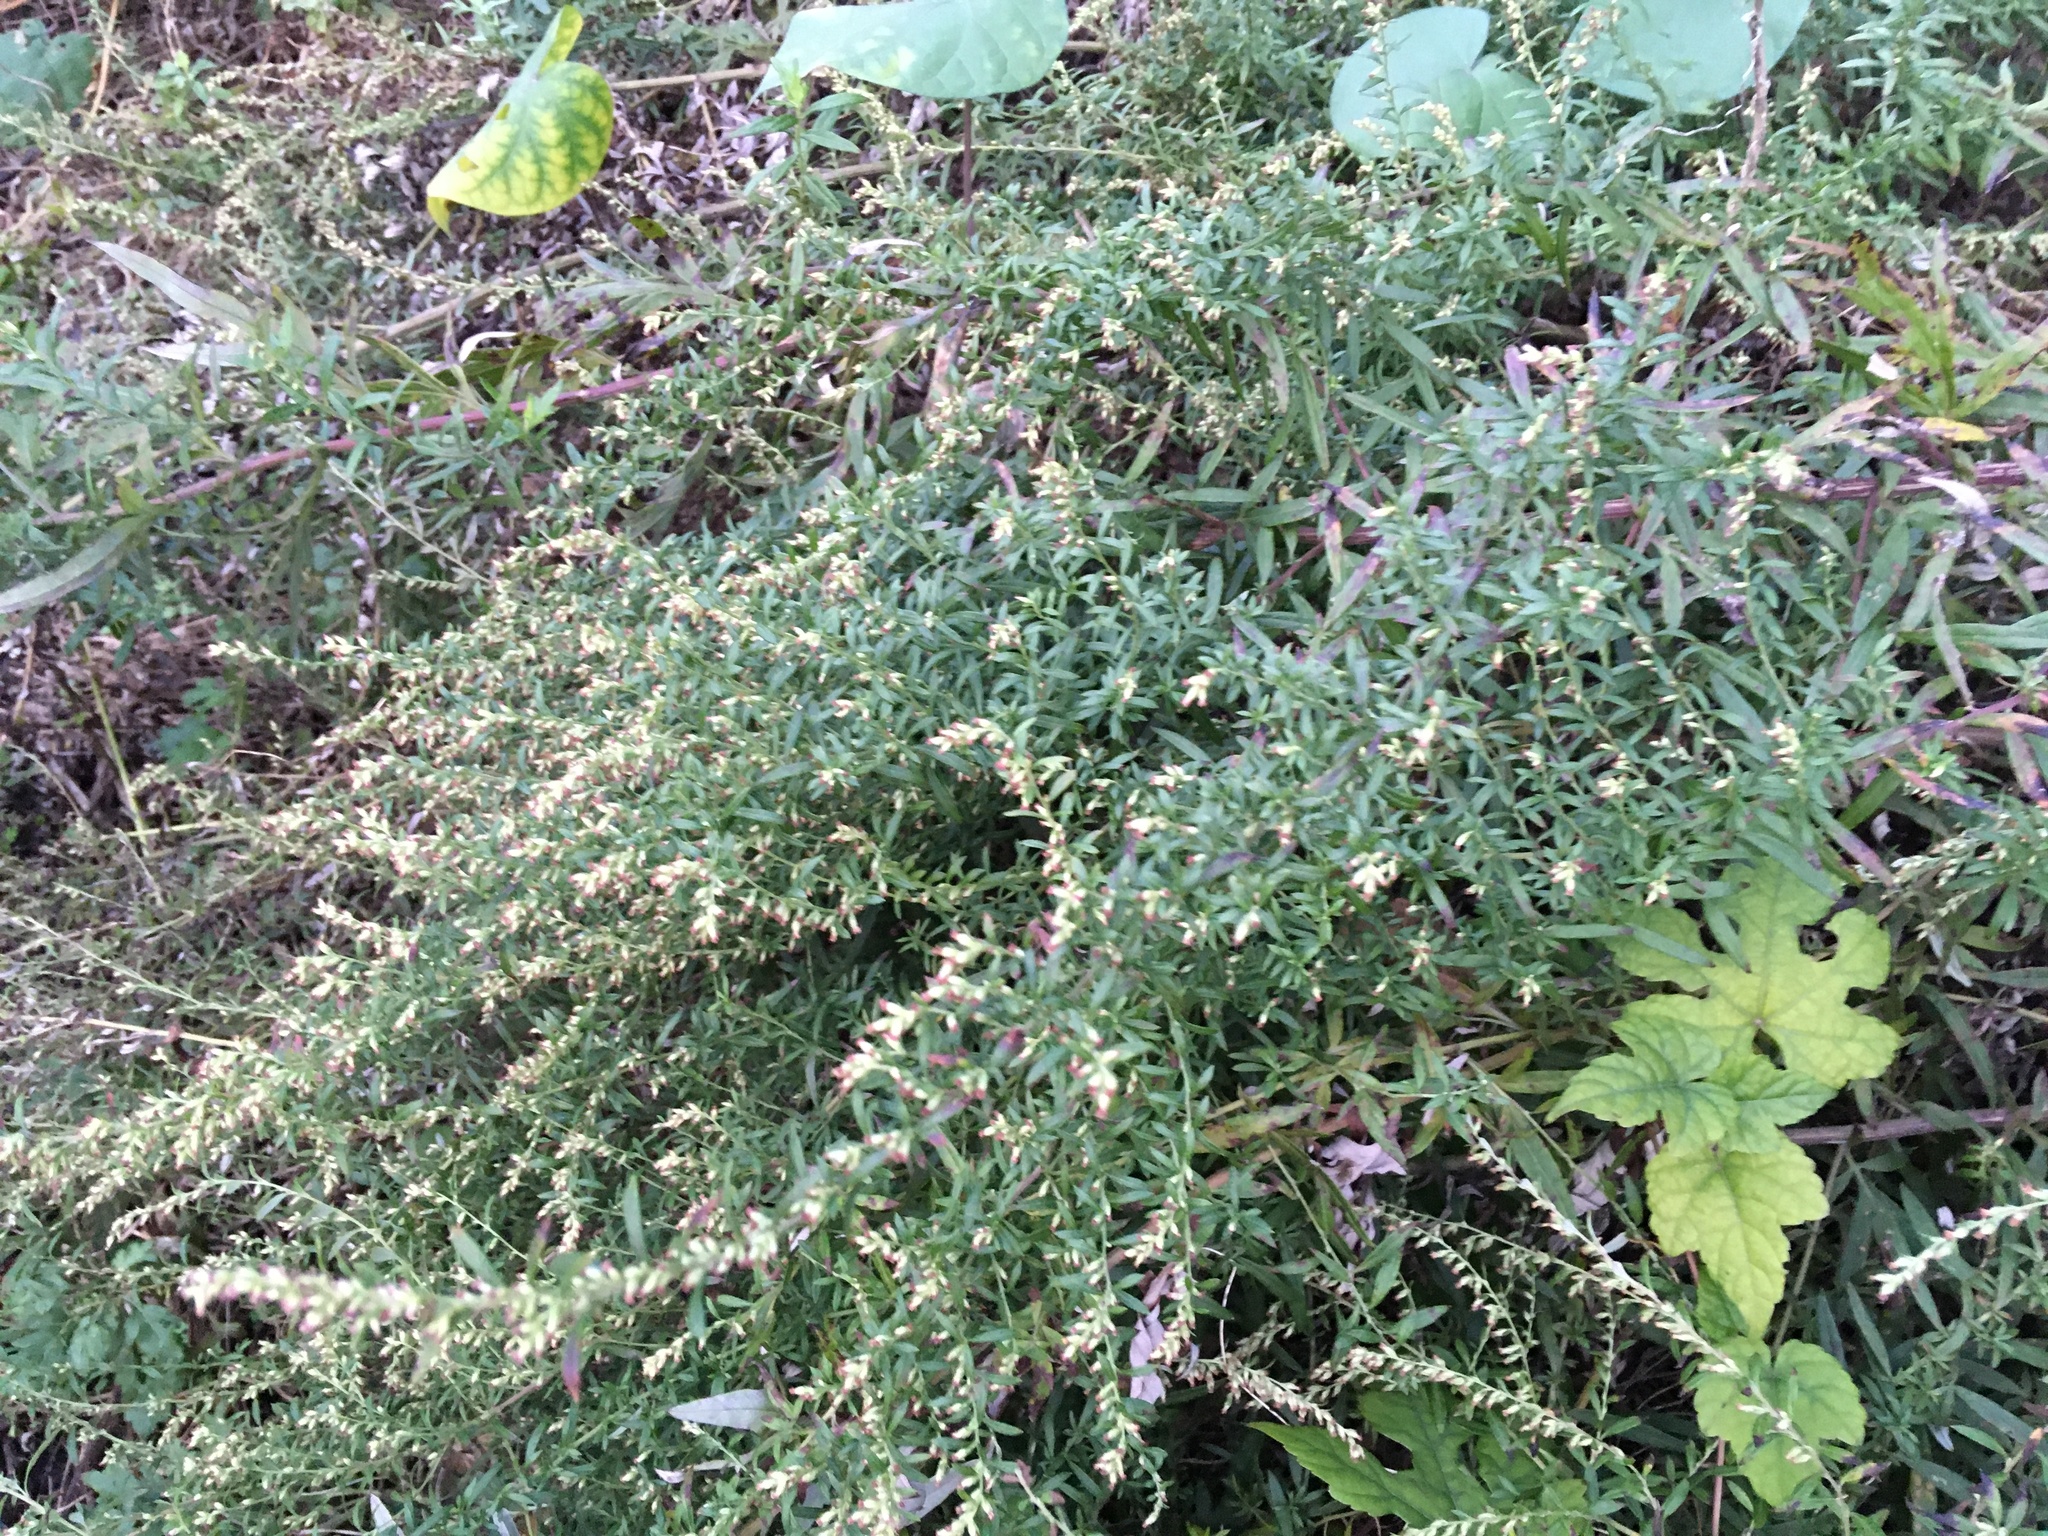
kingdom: Plantae
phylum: Tracheophyta
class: Magnoliopsida
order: Asterales
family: Asteraceae
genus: Artemisia
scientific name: Artemisia vulgaris
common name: Mugwort
